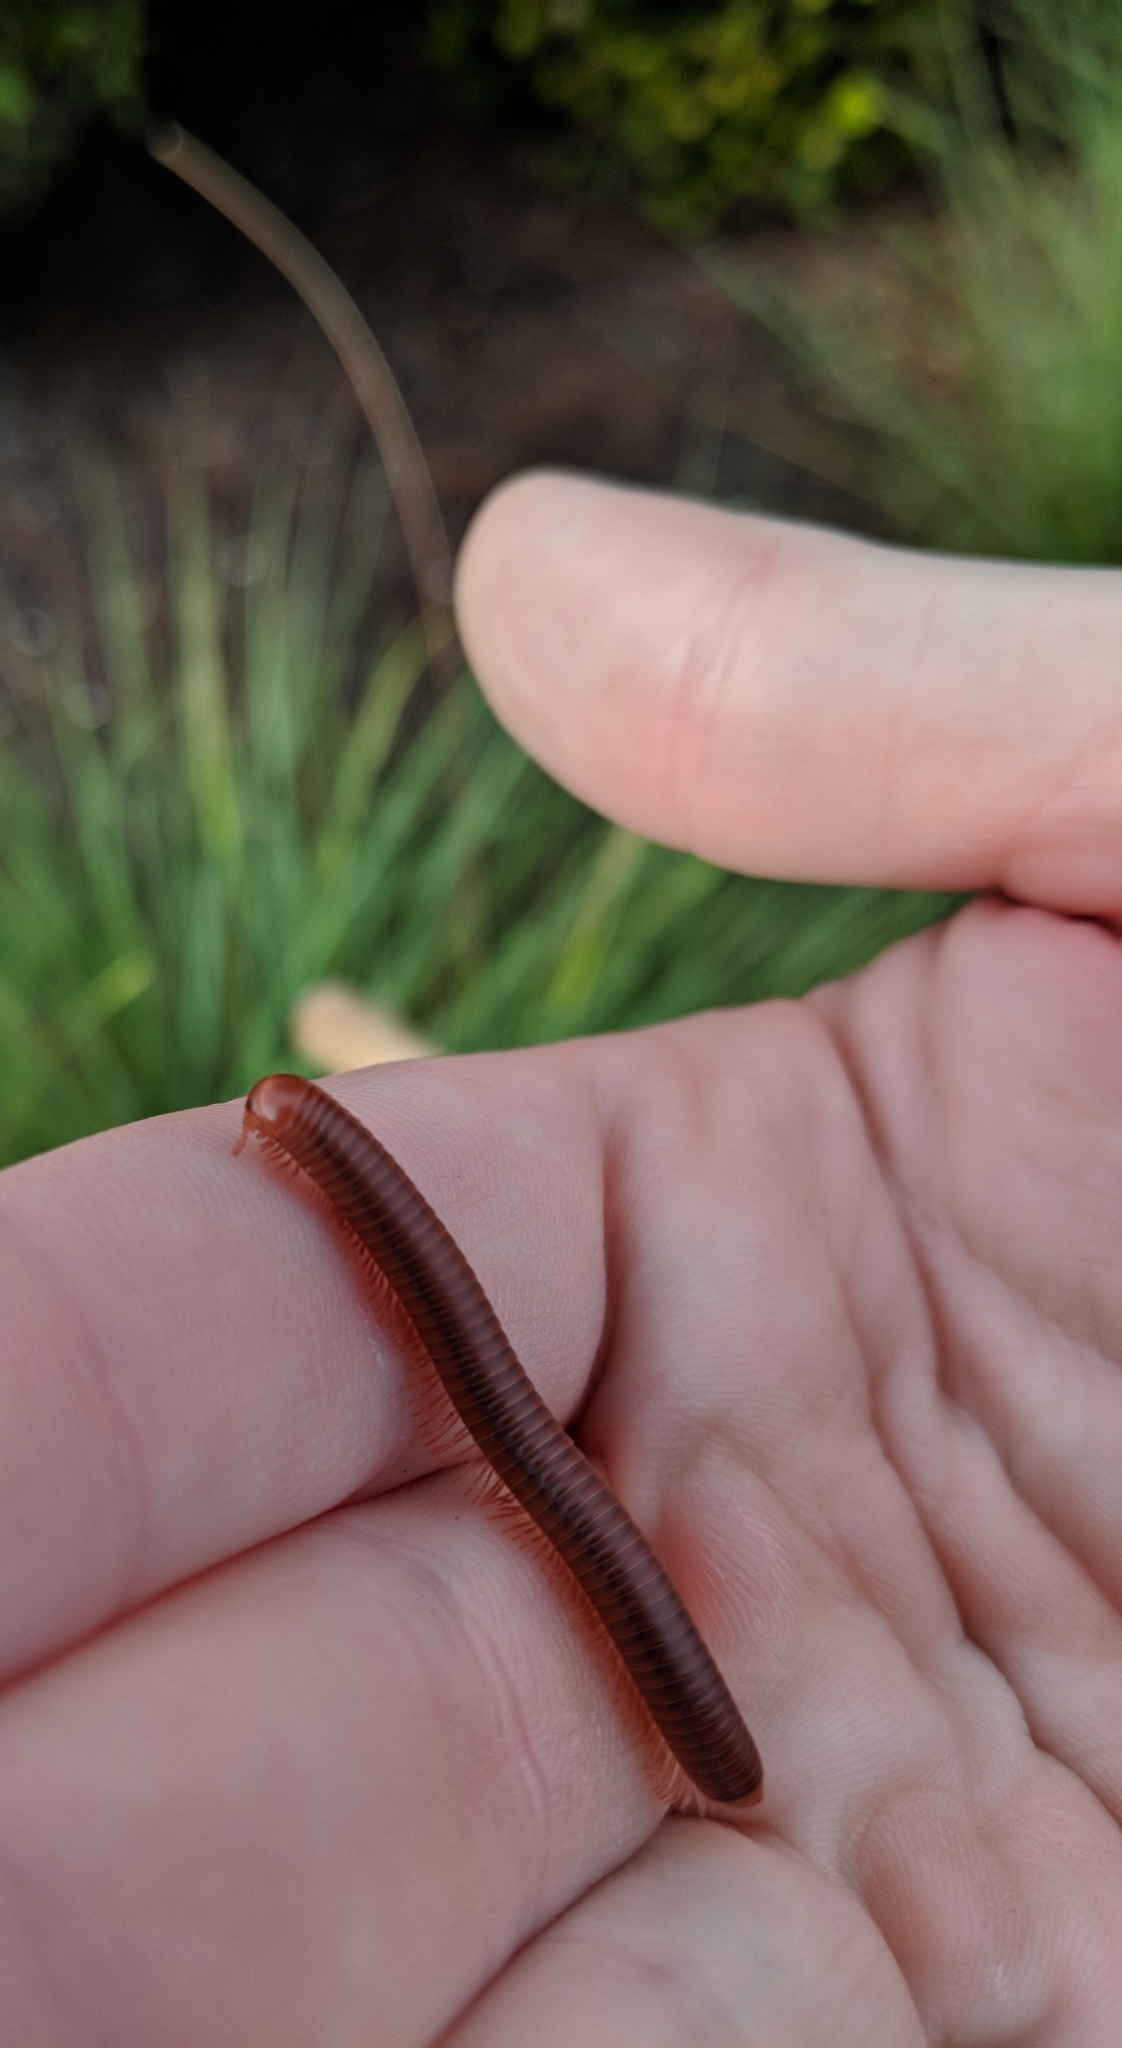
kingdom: Animalia
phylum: Arthropoda
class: Diplopoda
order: Spirobolida
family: Pachybolidae
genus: Trigoniulus
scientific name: Trigoniulus corallinus
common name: Millipede
